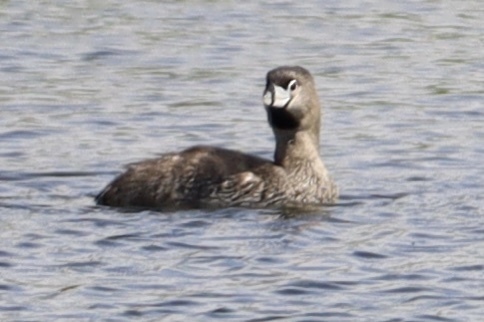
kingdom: Animalia
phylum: Chordata
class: Aves
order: Podicipediformes
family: Podicipedidae
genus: Podilymbus
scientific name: Podilymbus podiceps
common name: Pied-billed grebe
